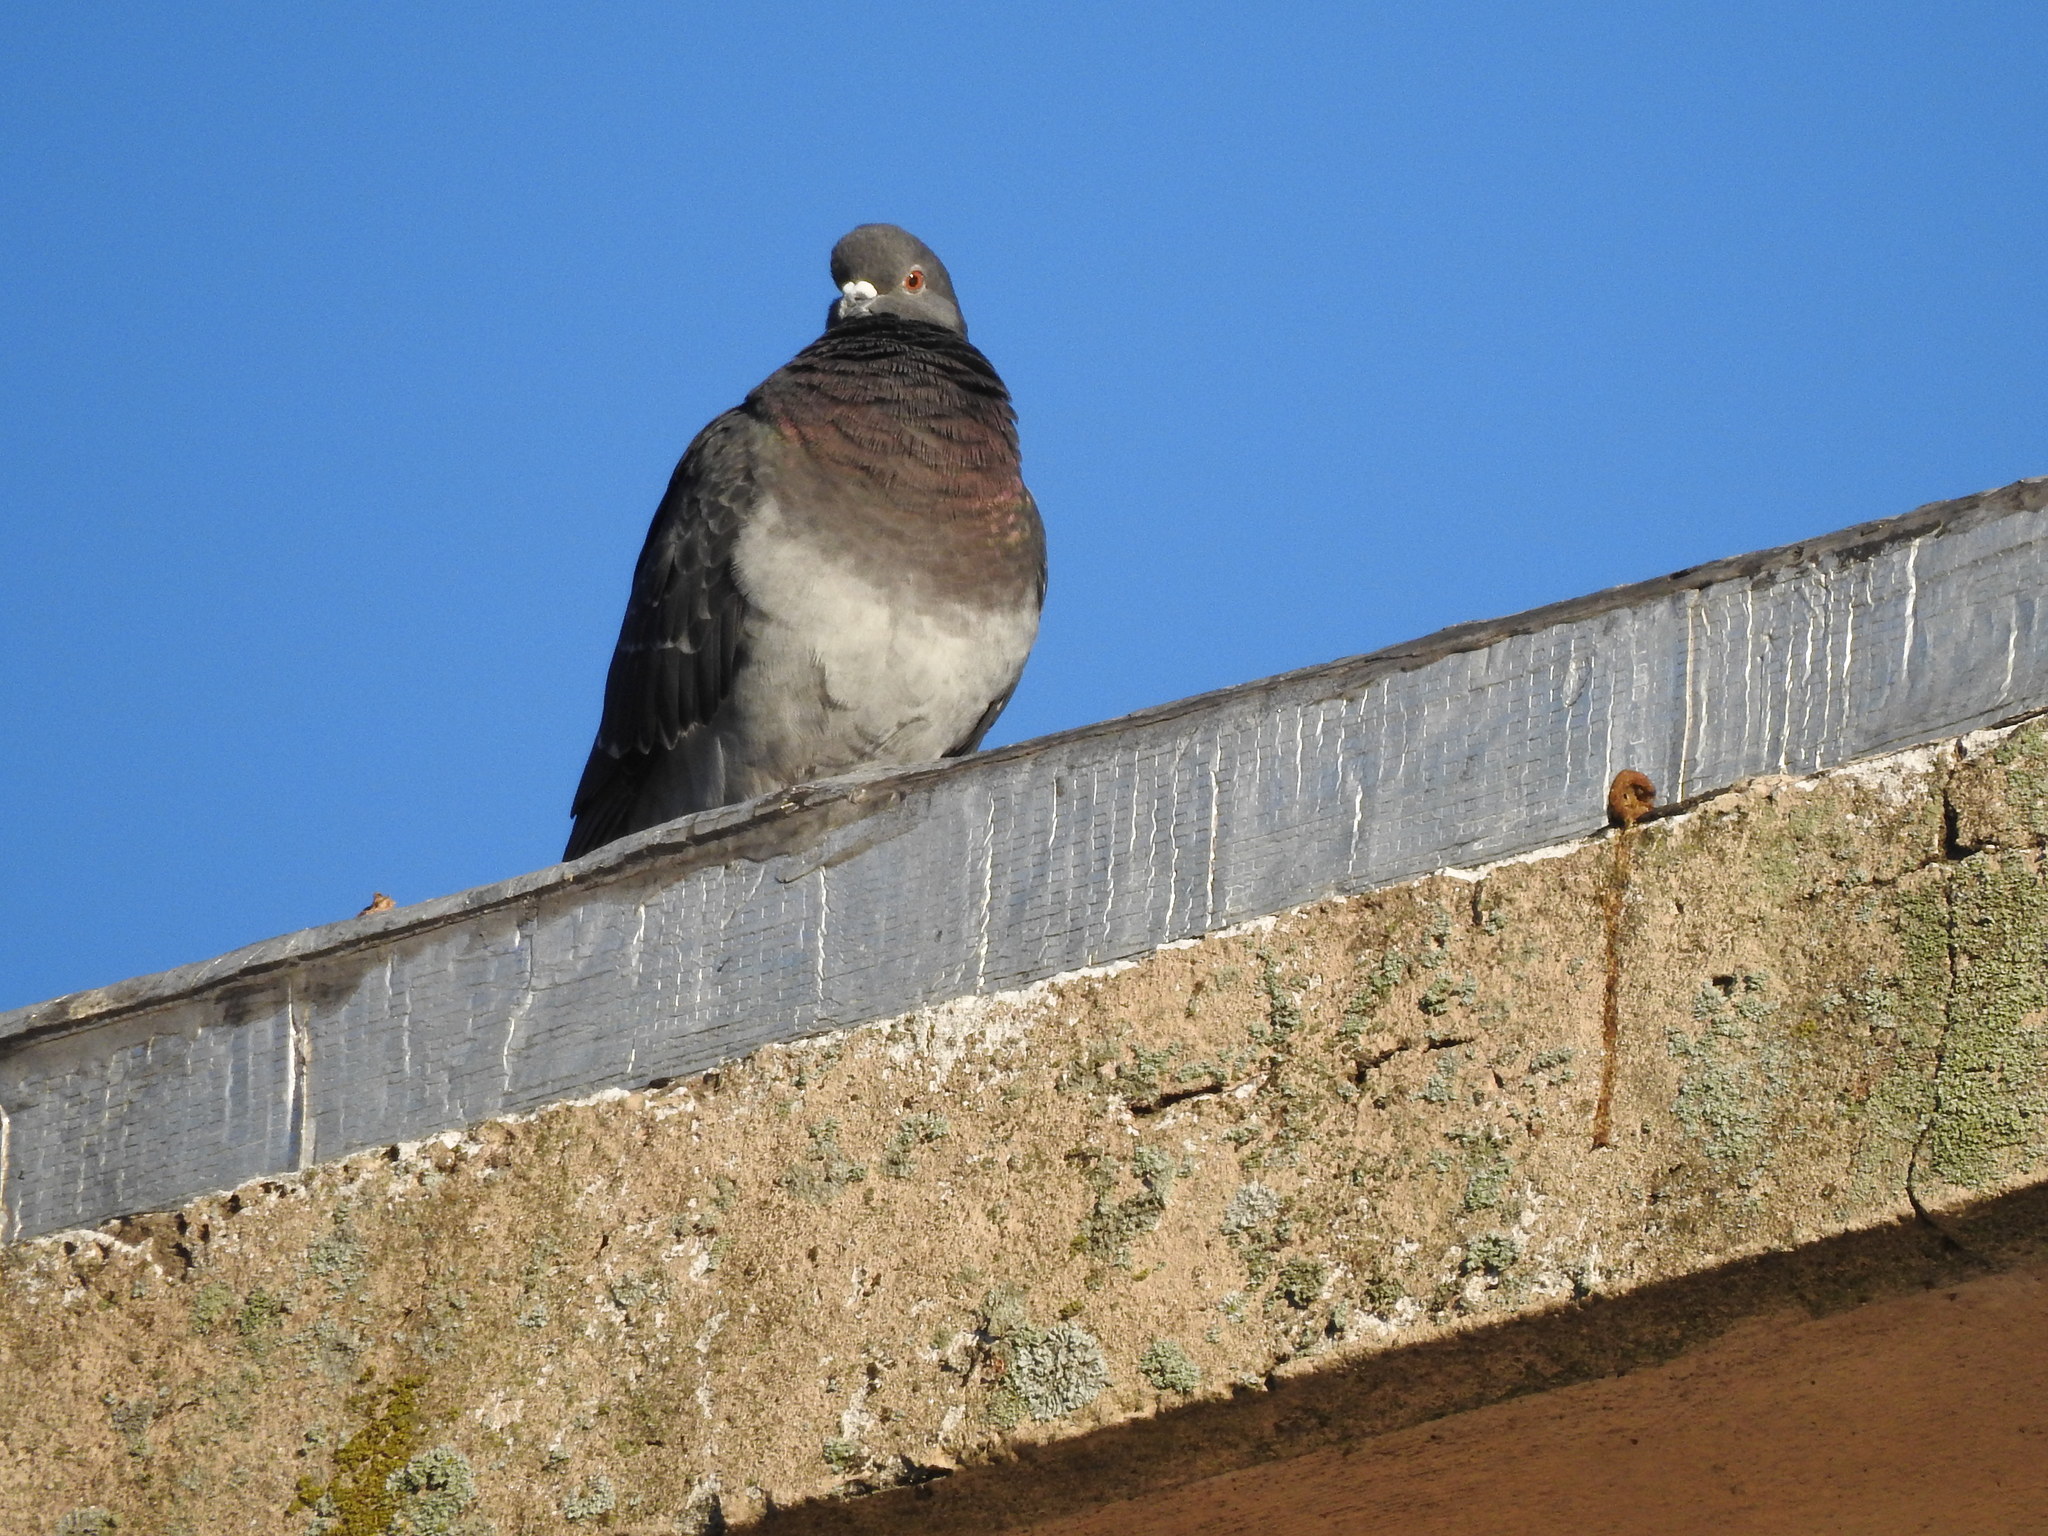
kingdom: Animalia
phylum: Chordata
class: Aves
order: Columbiformes
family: Columbidae
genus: Columba
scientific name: Columba livia
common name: Rock pigeon
